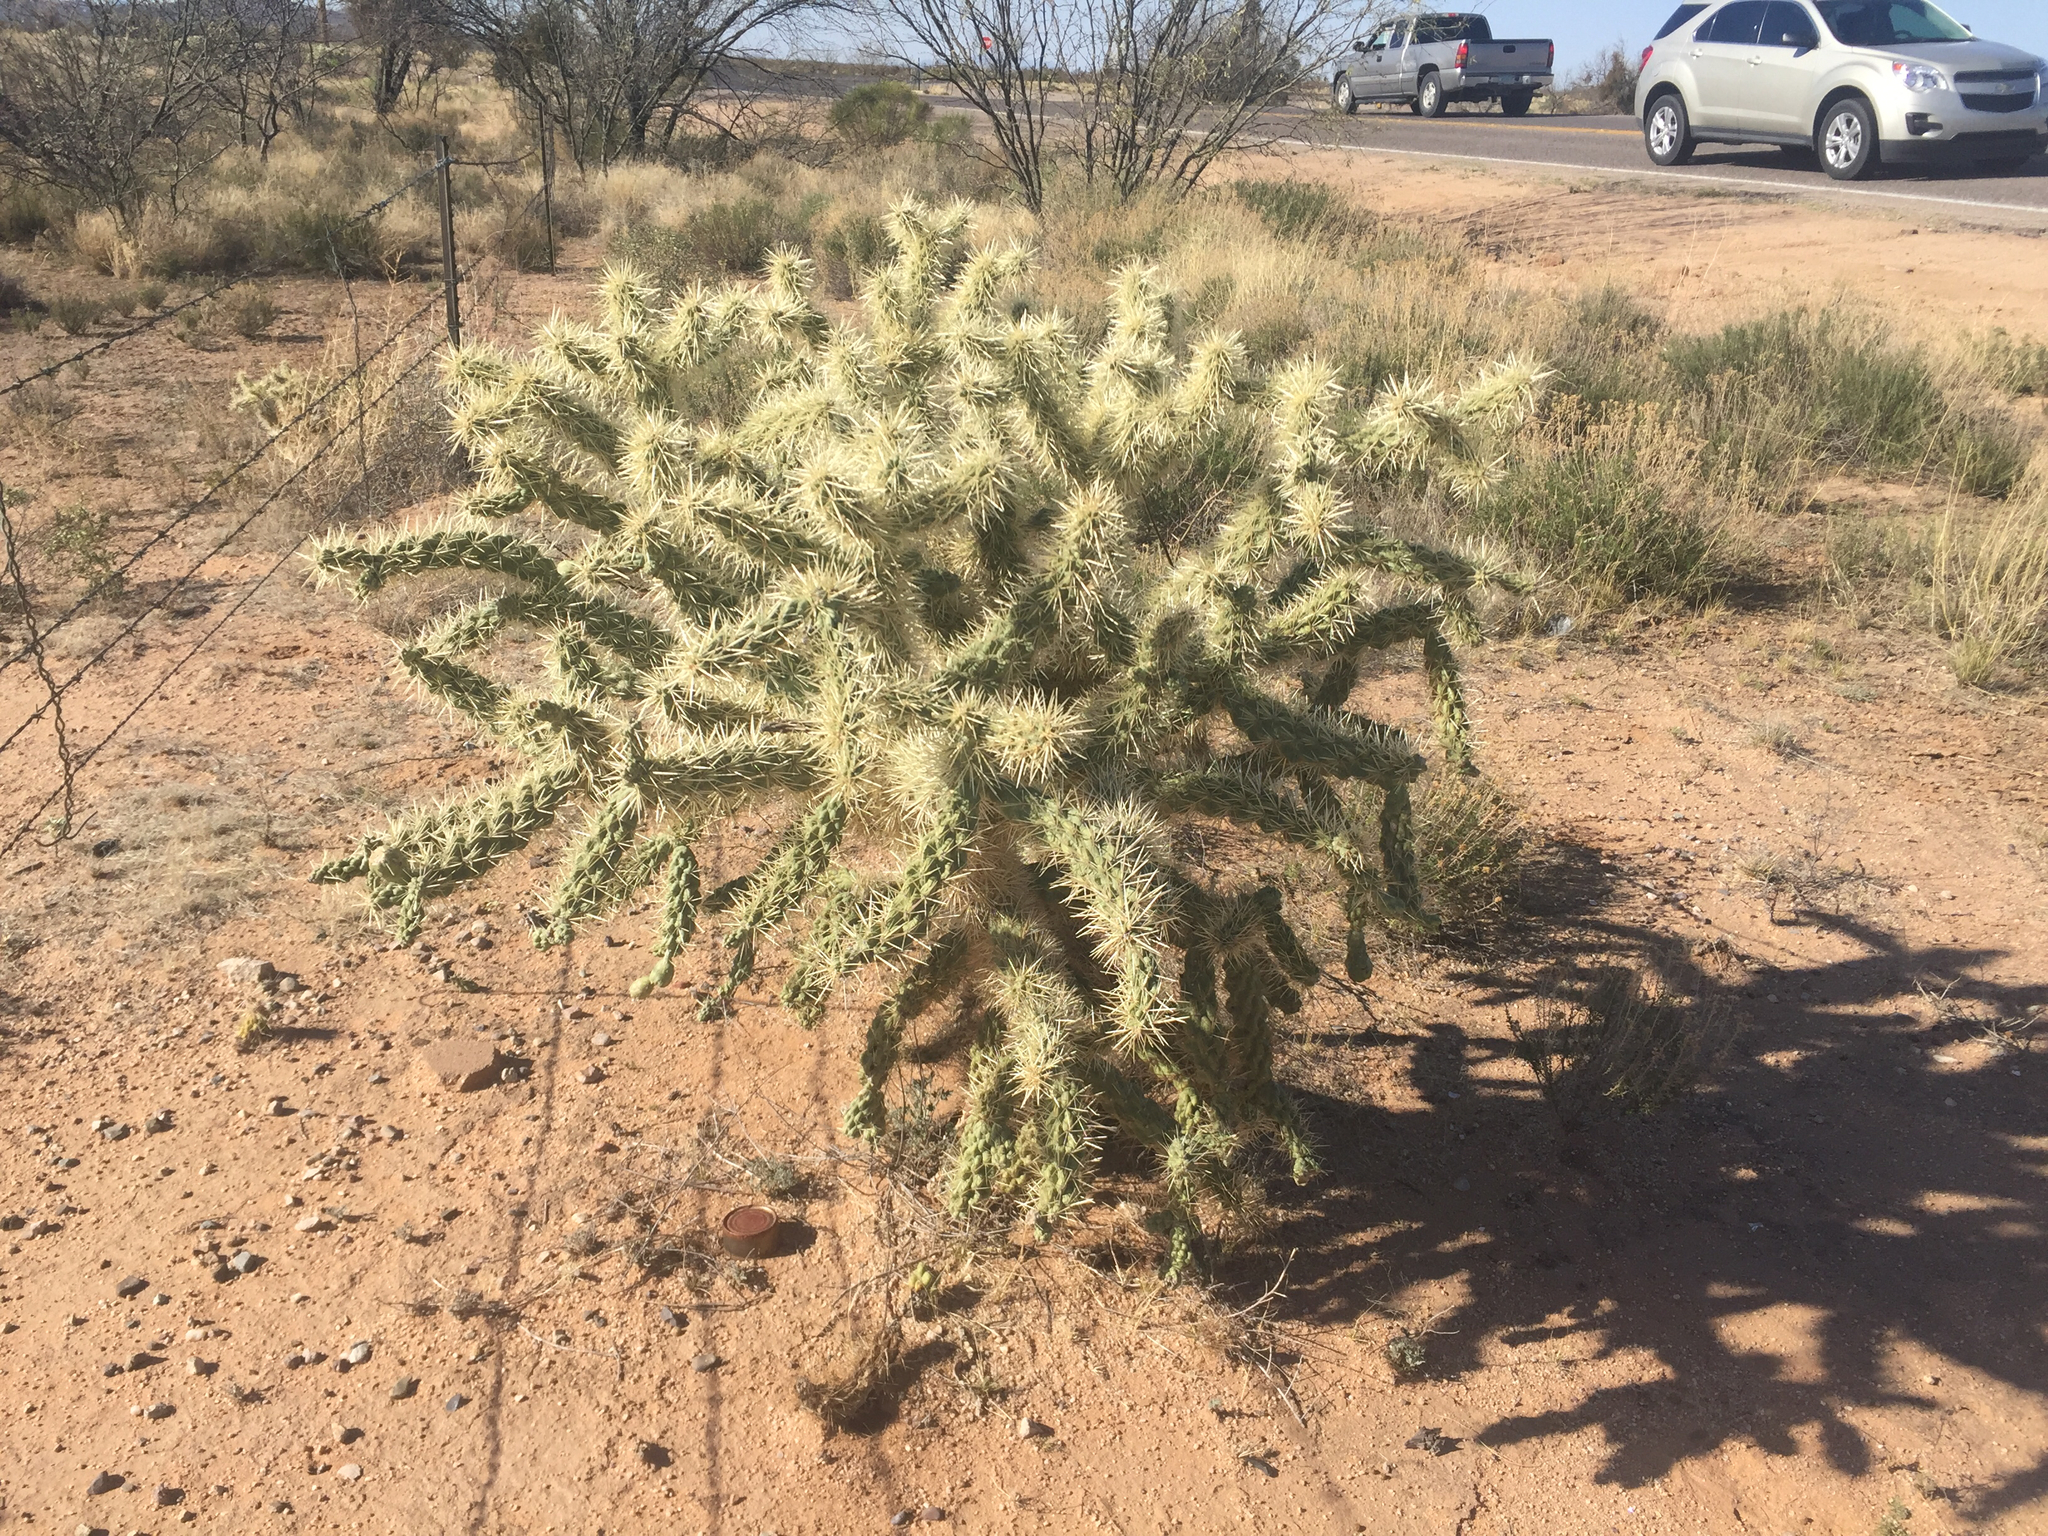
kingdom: Plantae
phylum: Tracheophyta
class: Magnoliopsida
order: Caryophyllales
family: Cactaceae
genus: Cylindropuntia
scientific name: Cylindropuntia fulgida
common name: Jumping cholla
